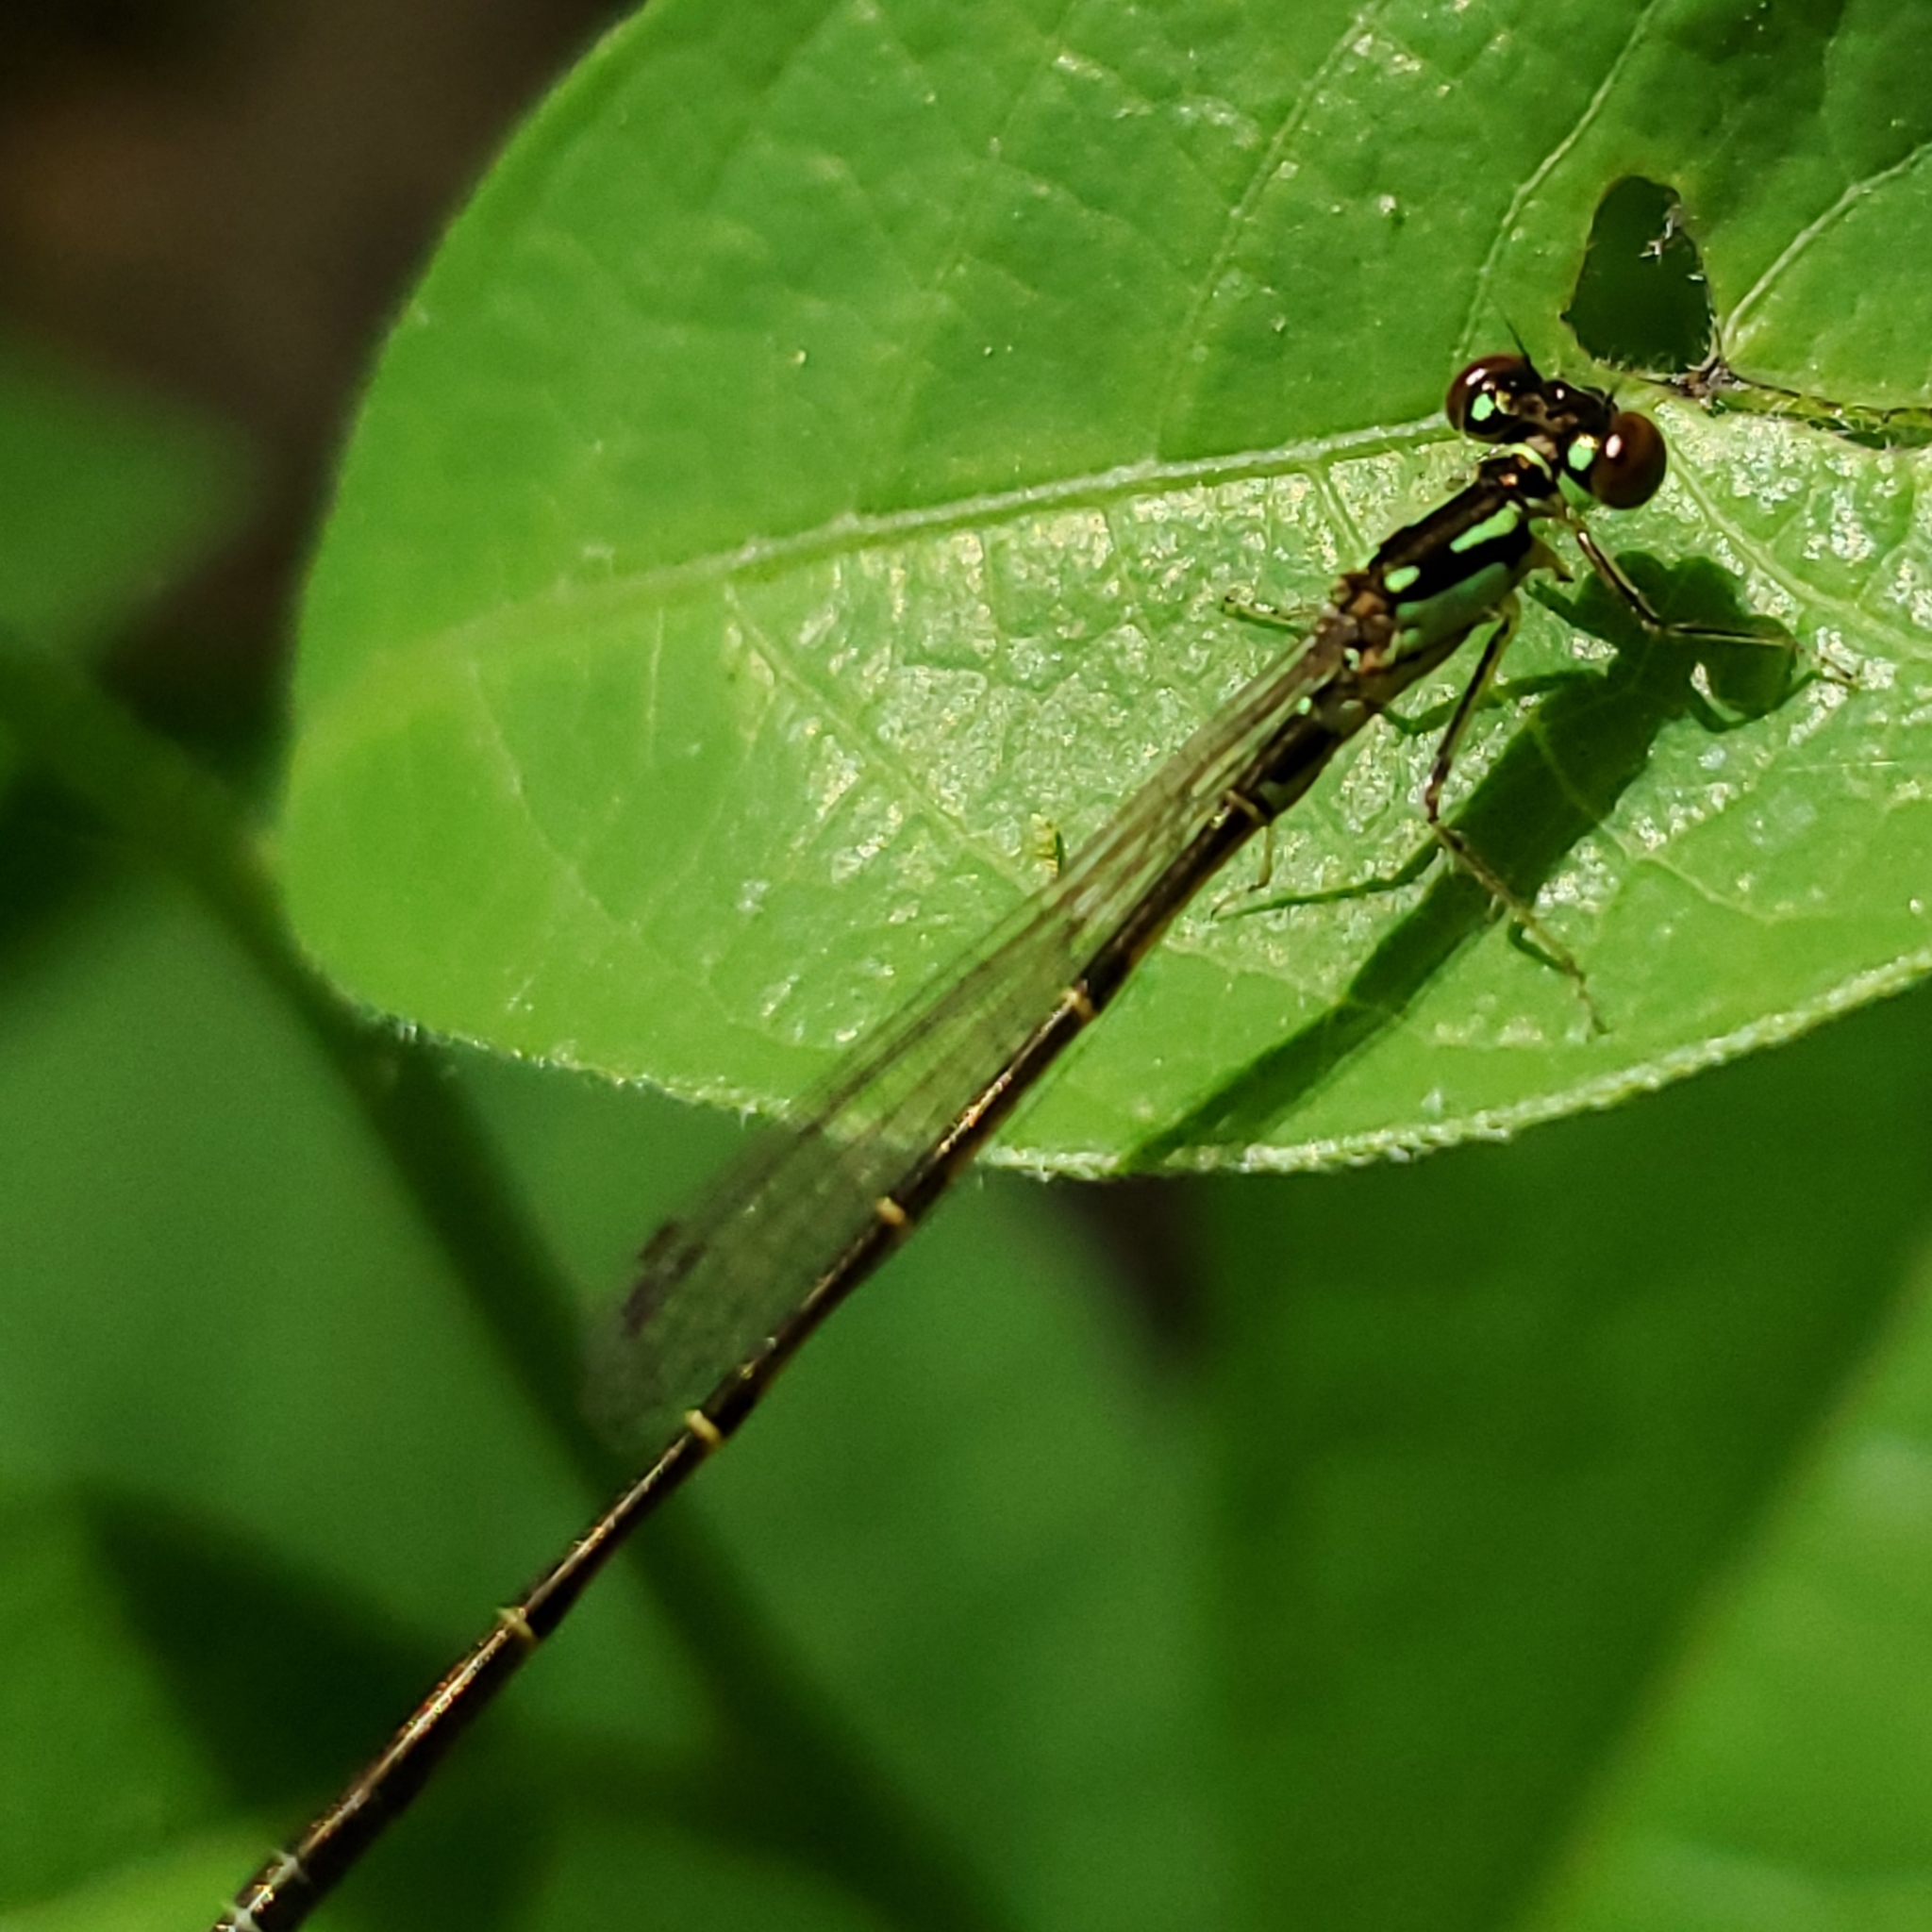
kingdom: Animalia
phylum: Arthropoda
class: Insecta
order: Odonata
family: Coenagrionidae
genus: Ischnura
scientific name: Ischnura posita
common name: Fragile forktail
